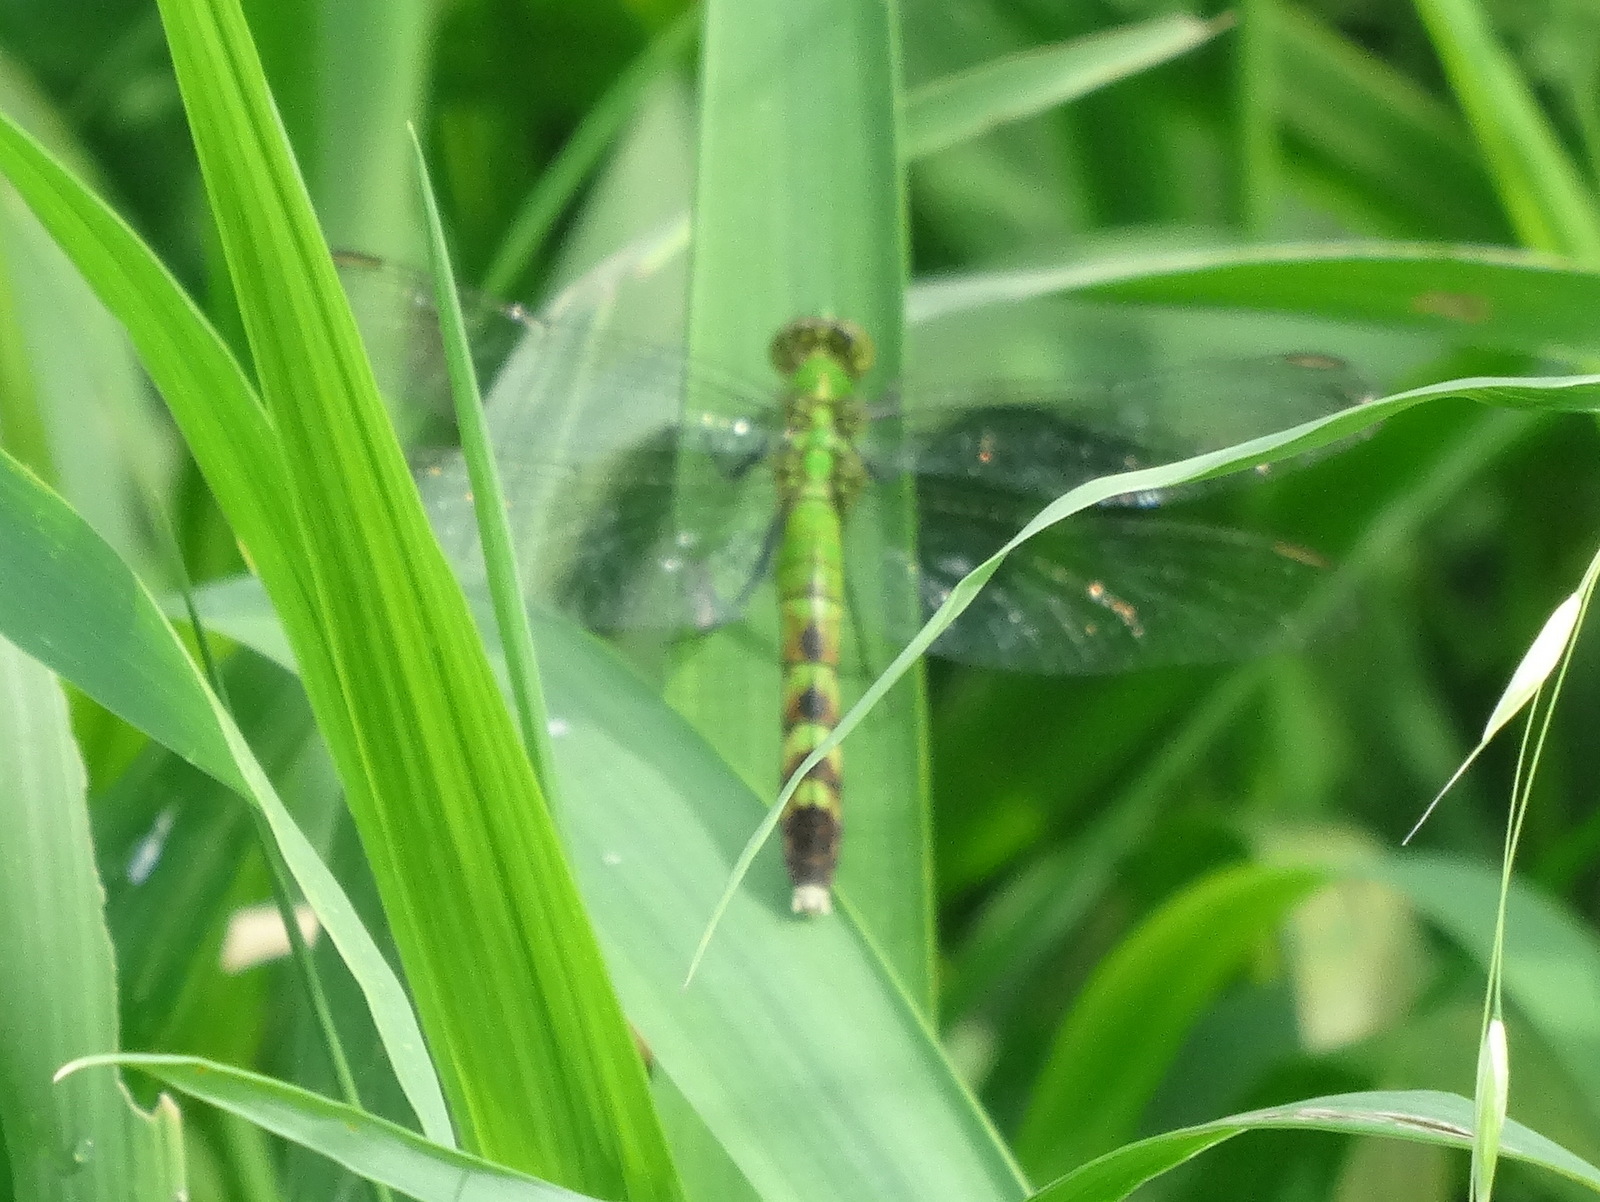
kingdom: Animalia
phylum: Arthropoda
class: Insecta
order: Odonata
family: Libellulidae
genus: Erythemis
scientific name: Erythemis simplicicollis
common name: Eastern pondhawk
